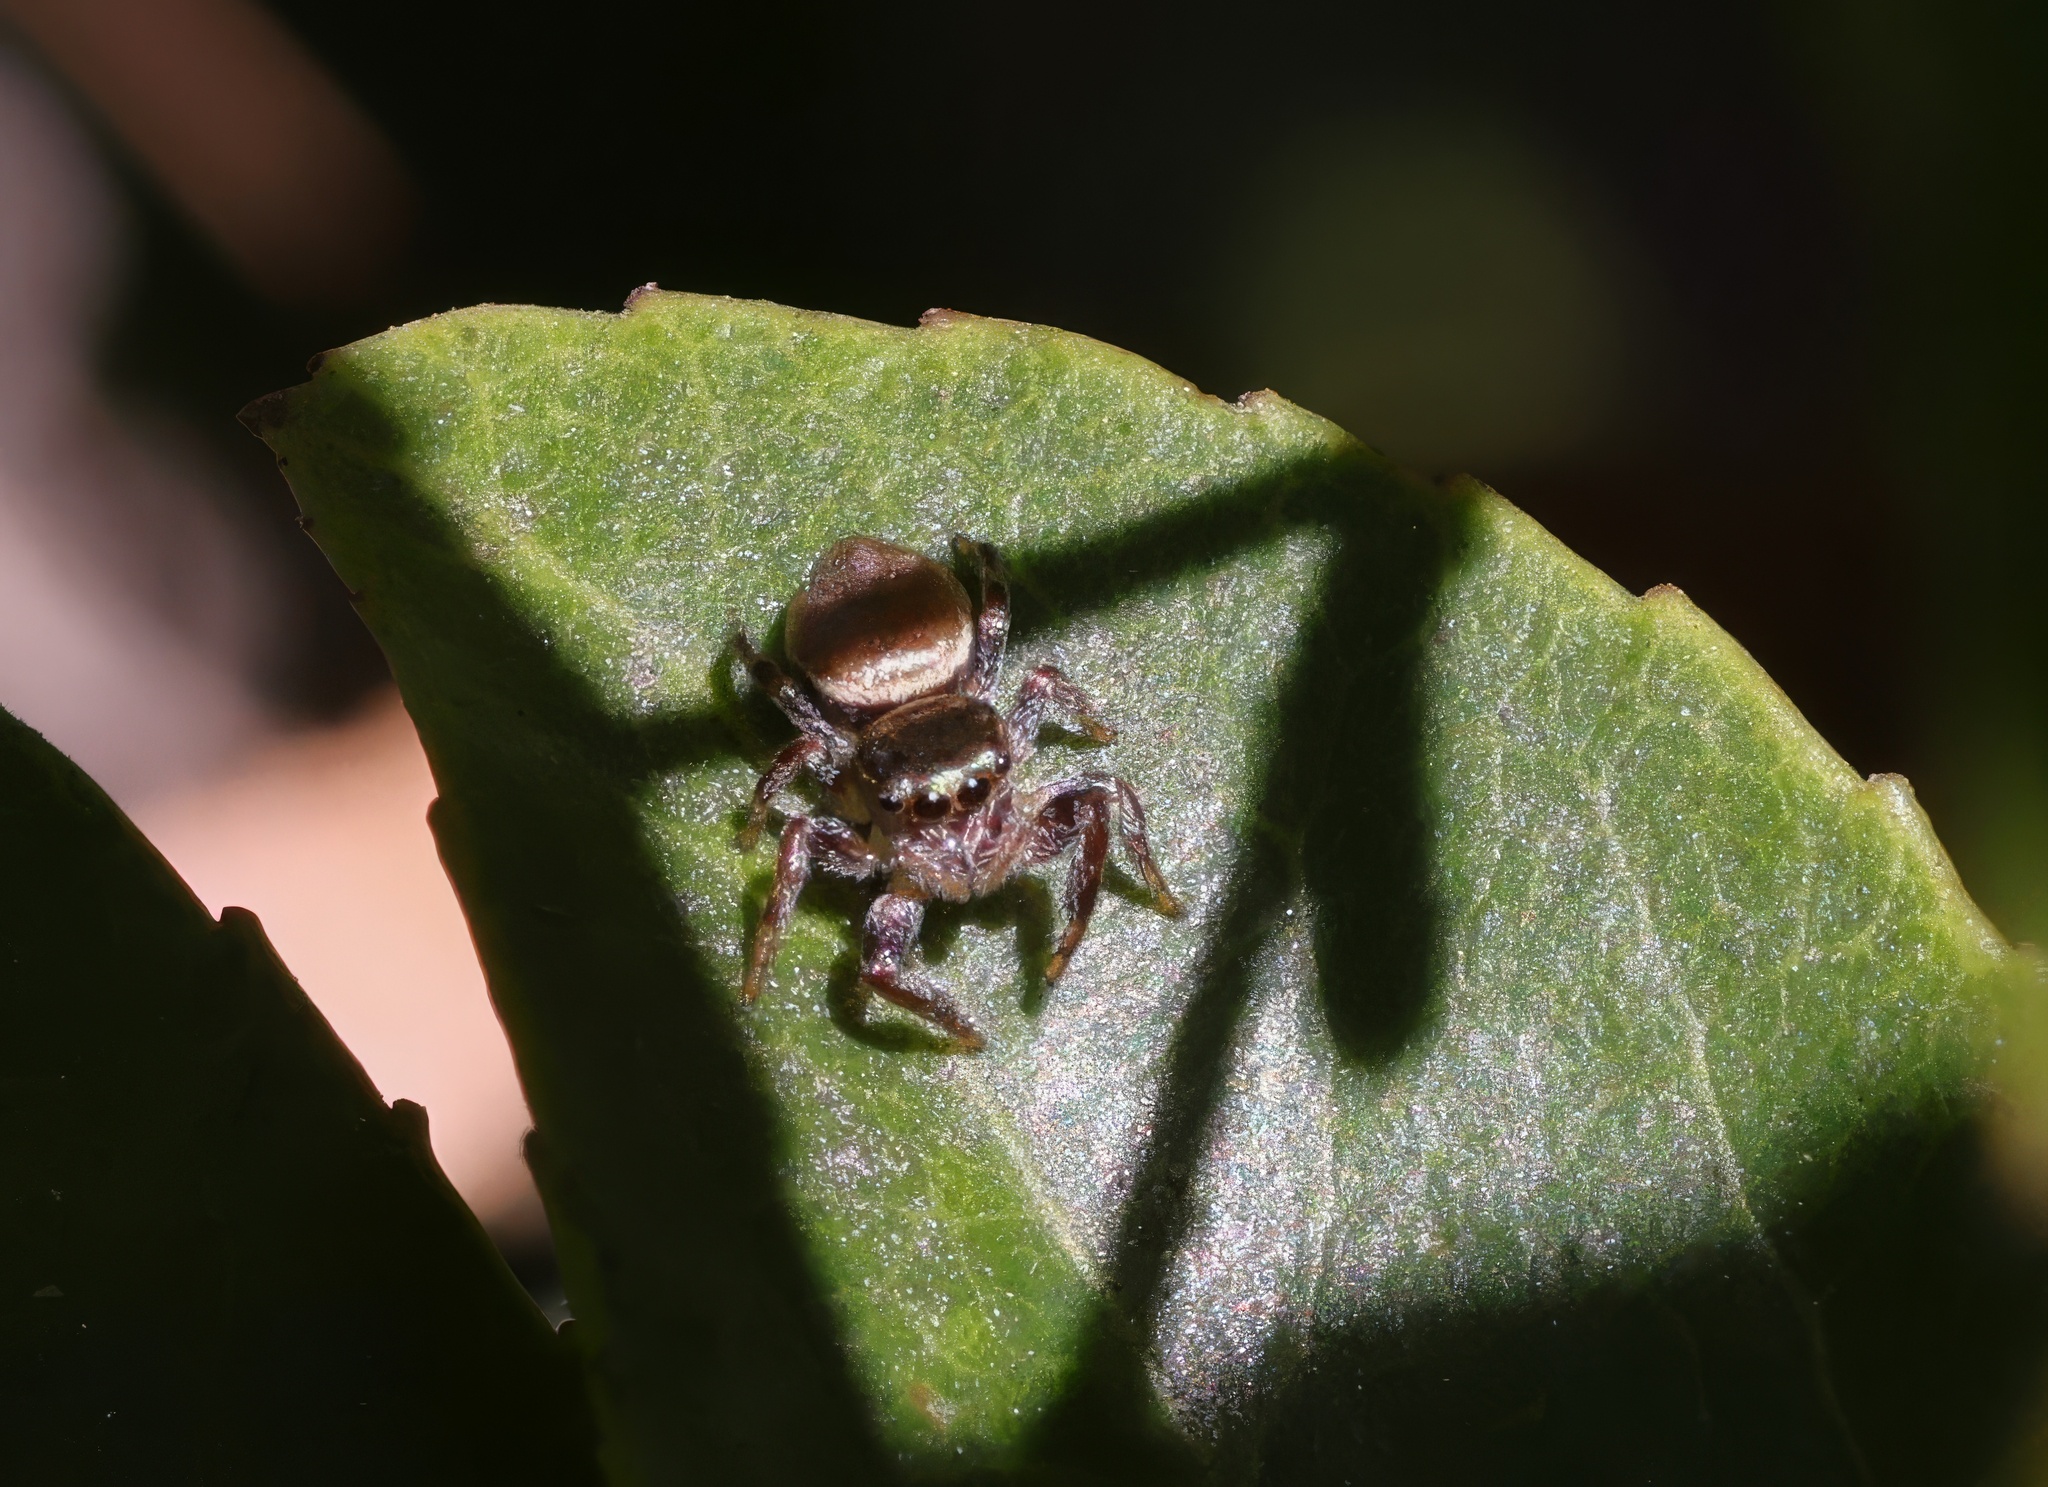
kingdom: Animalia
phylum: Arthropoda
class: Arachnida
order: Araneae
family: Salticidae
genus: Sassacus
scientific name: Sassacus vitis
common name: Jumping spiders
